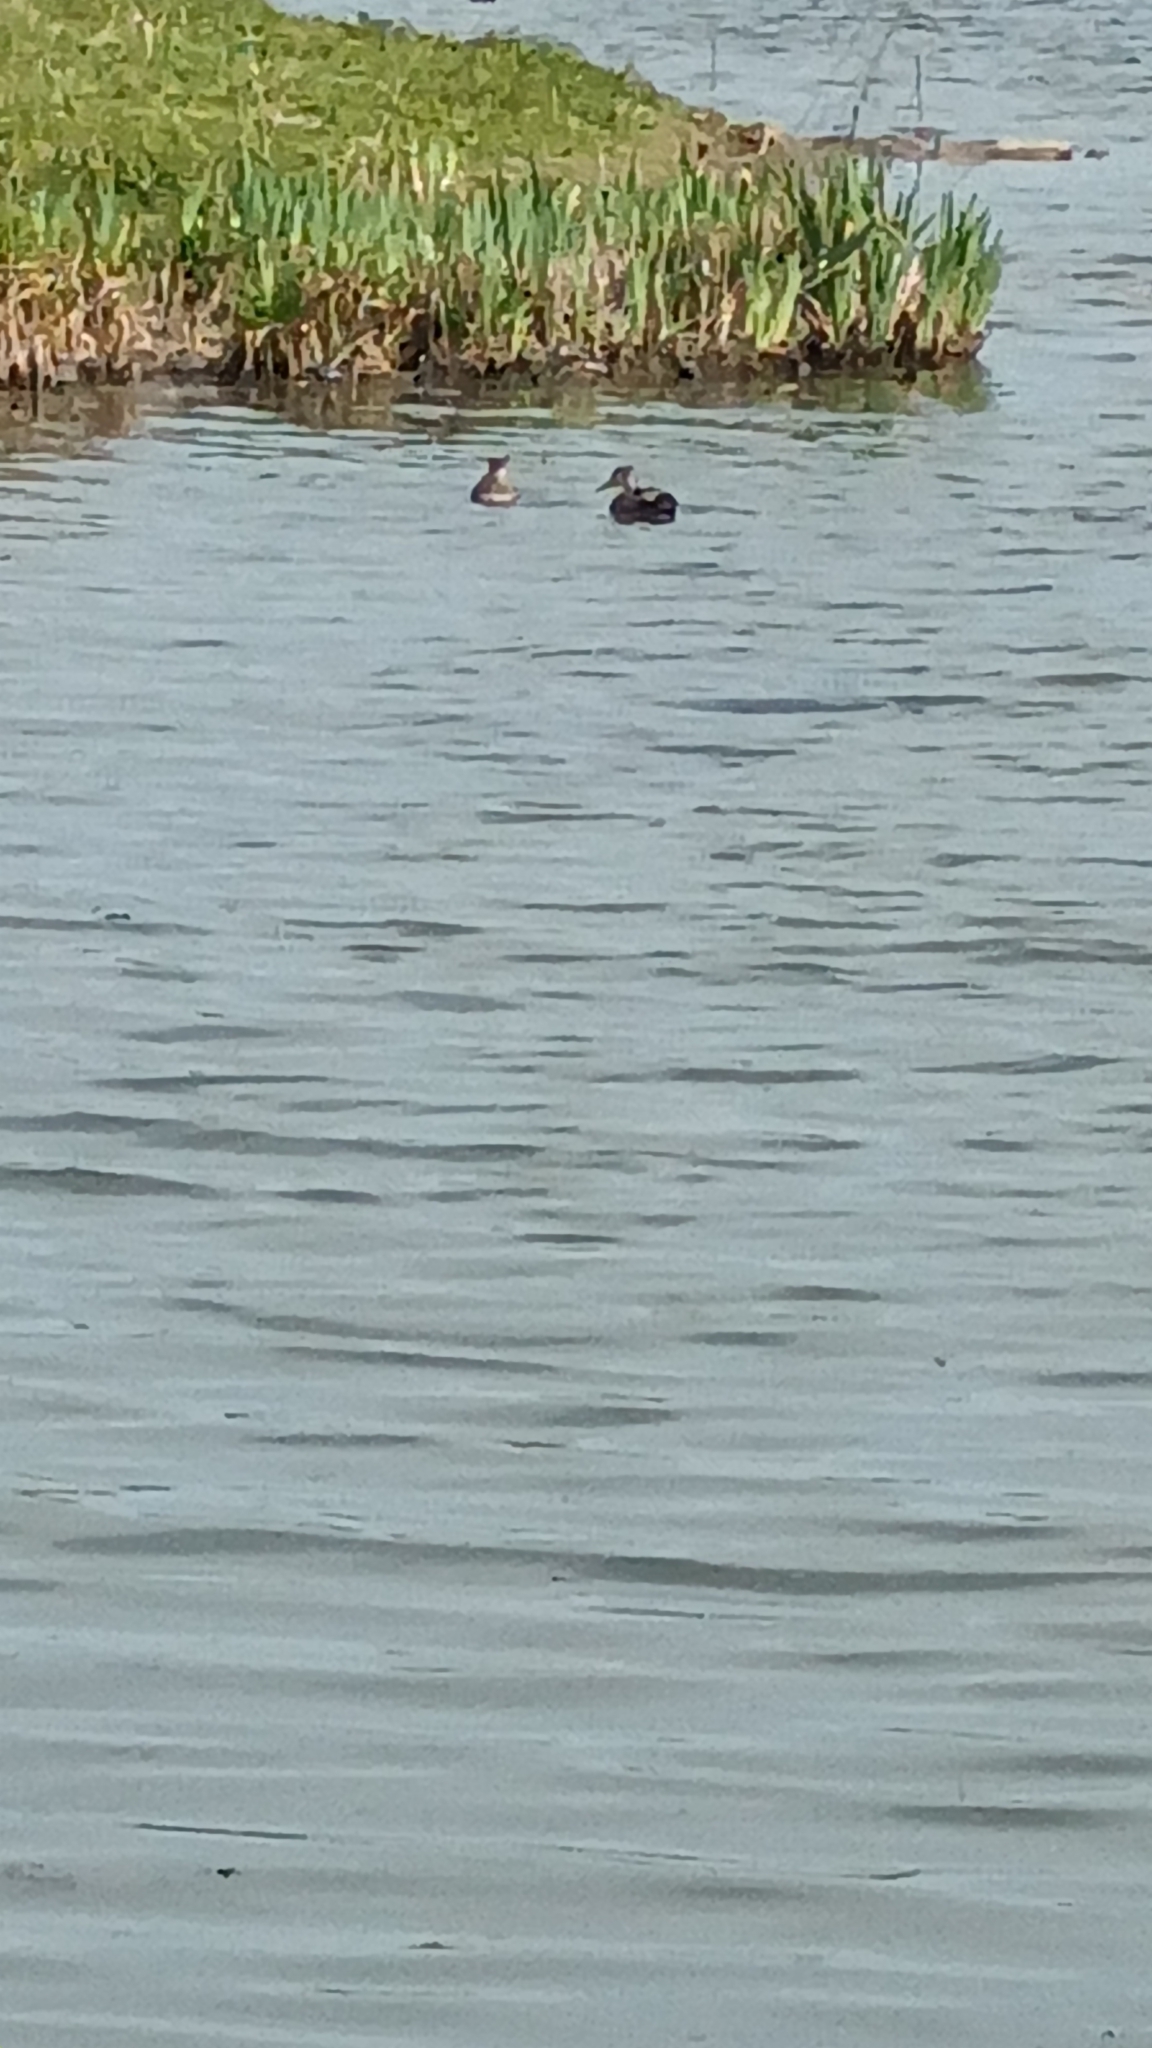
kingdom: Animalia
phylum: Chordata
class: Aves
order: Anseriformes
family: Anatidae
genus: Mareca
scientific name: Mareca strepera
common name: Gadwall
